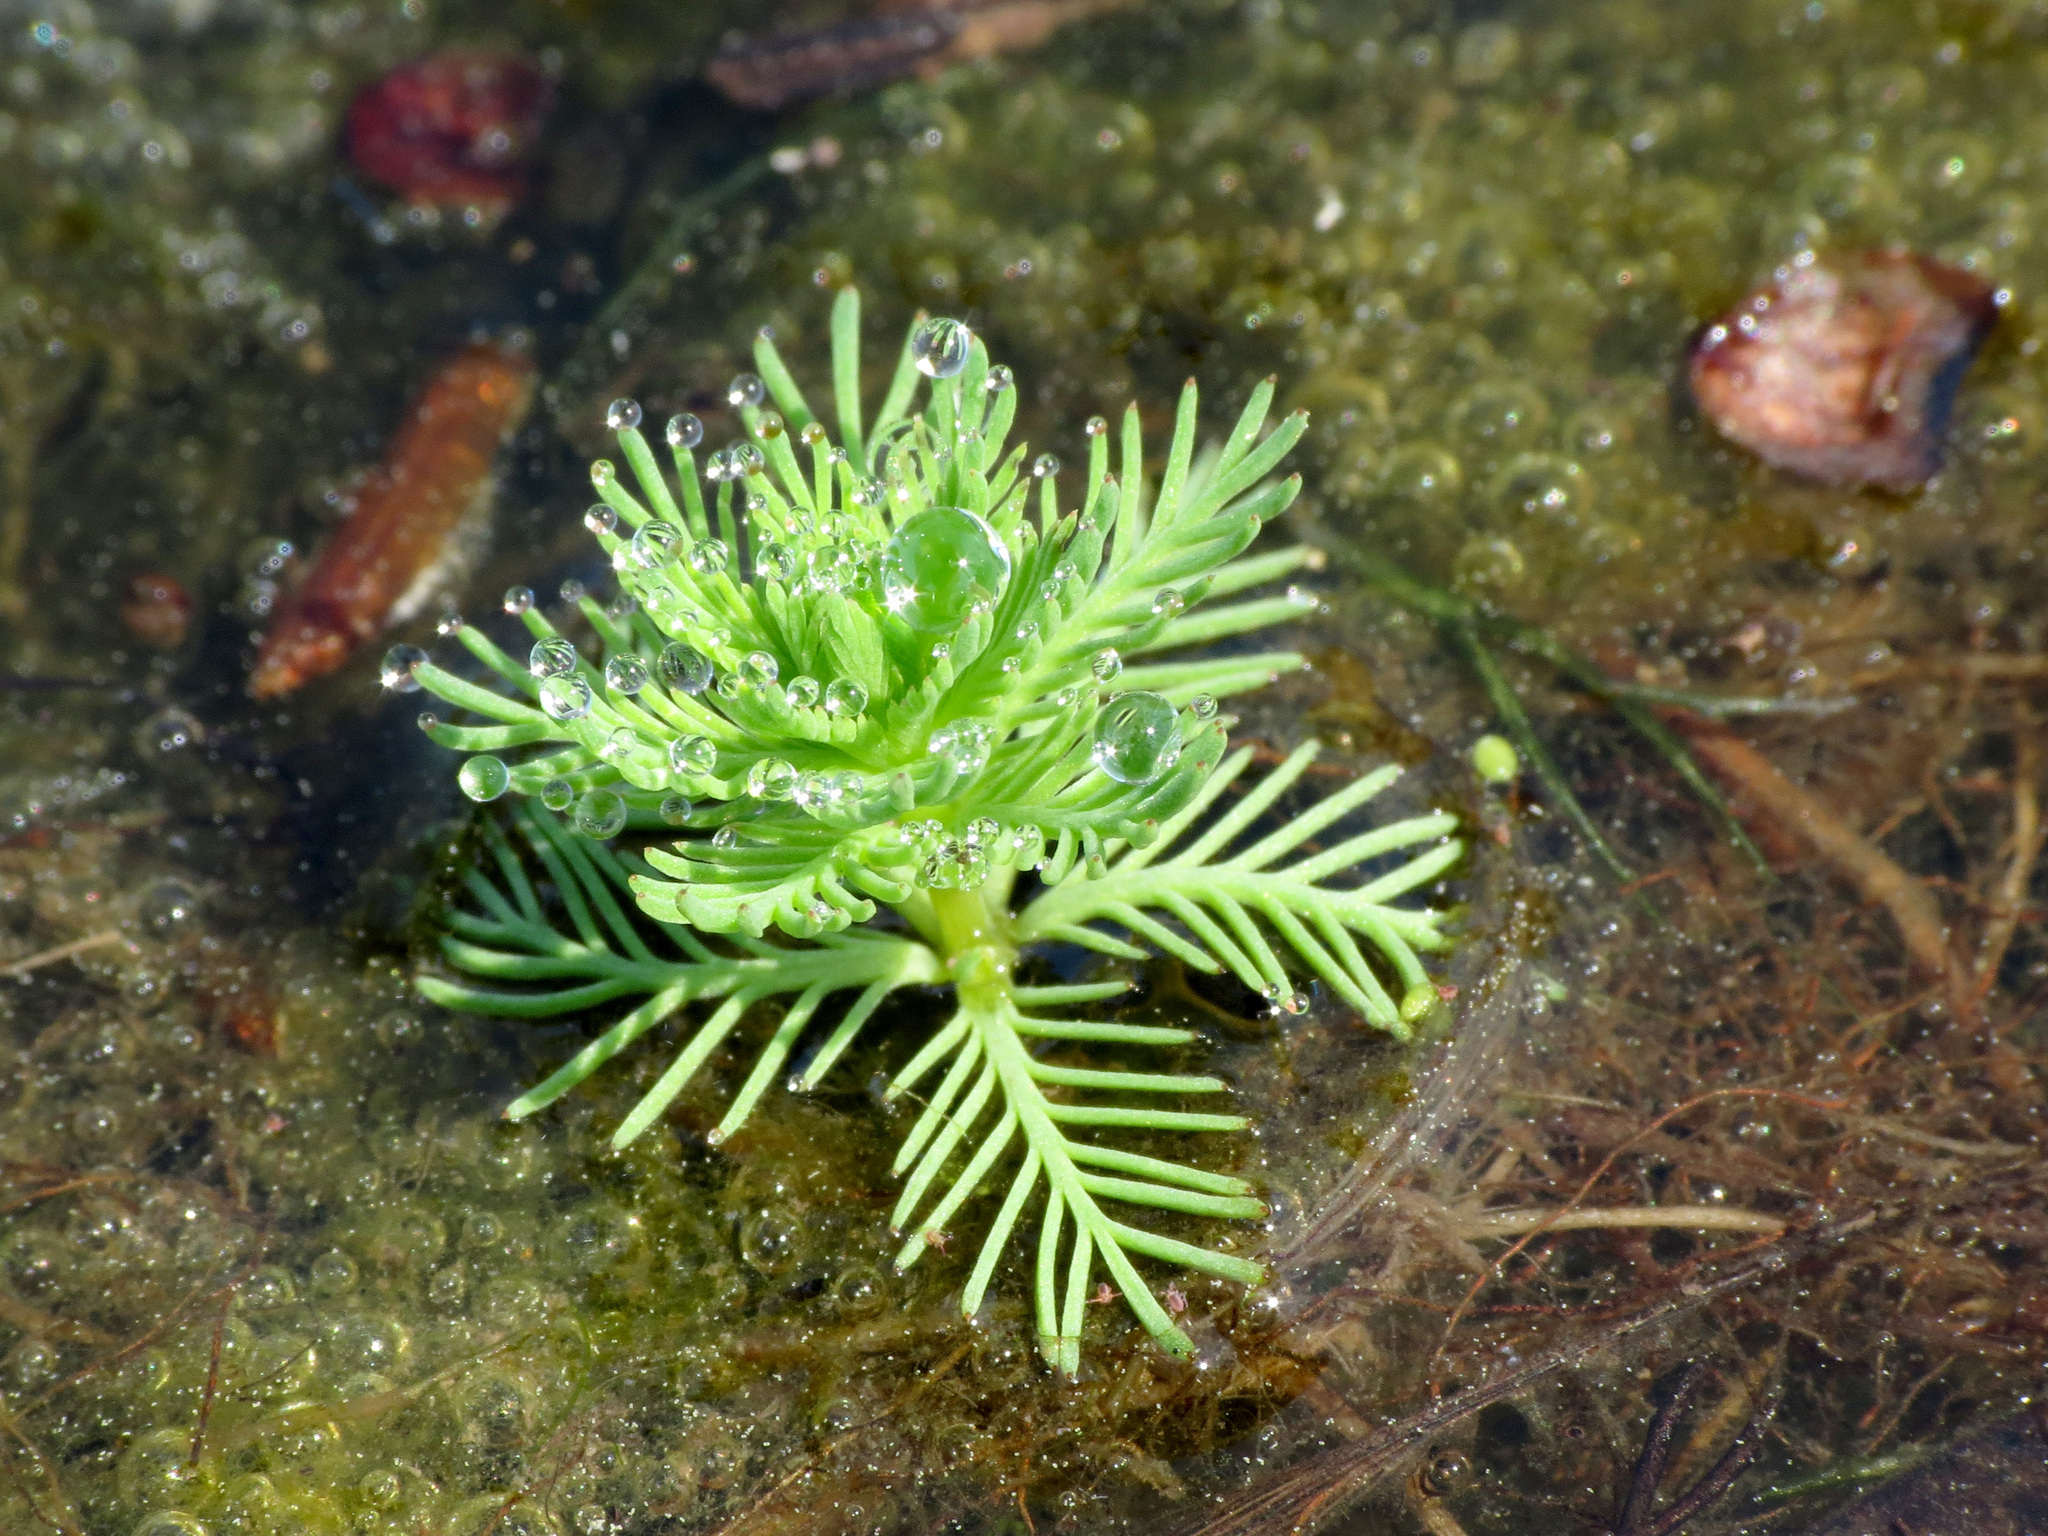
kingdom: Plantae
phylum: Tracheophyta
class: Magnoliopsida
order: Saxifragales
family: Haloragaceae
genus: Myriophyllum
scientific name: Myriophyllum aquaticum
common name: Parrot's feather
